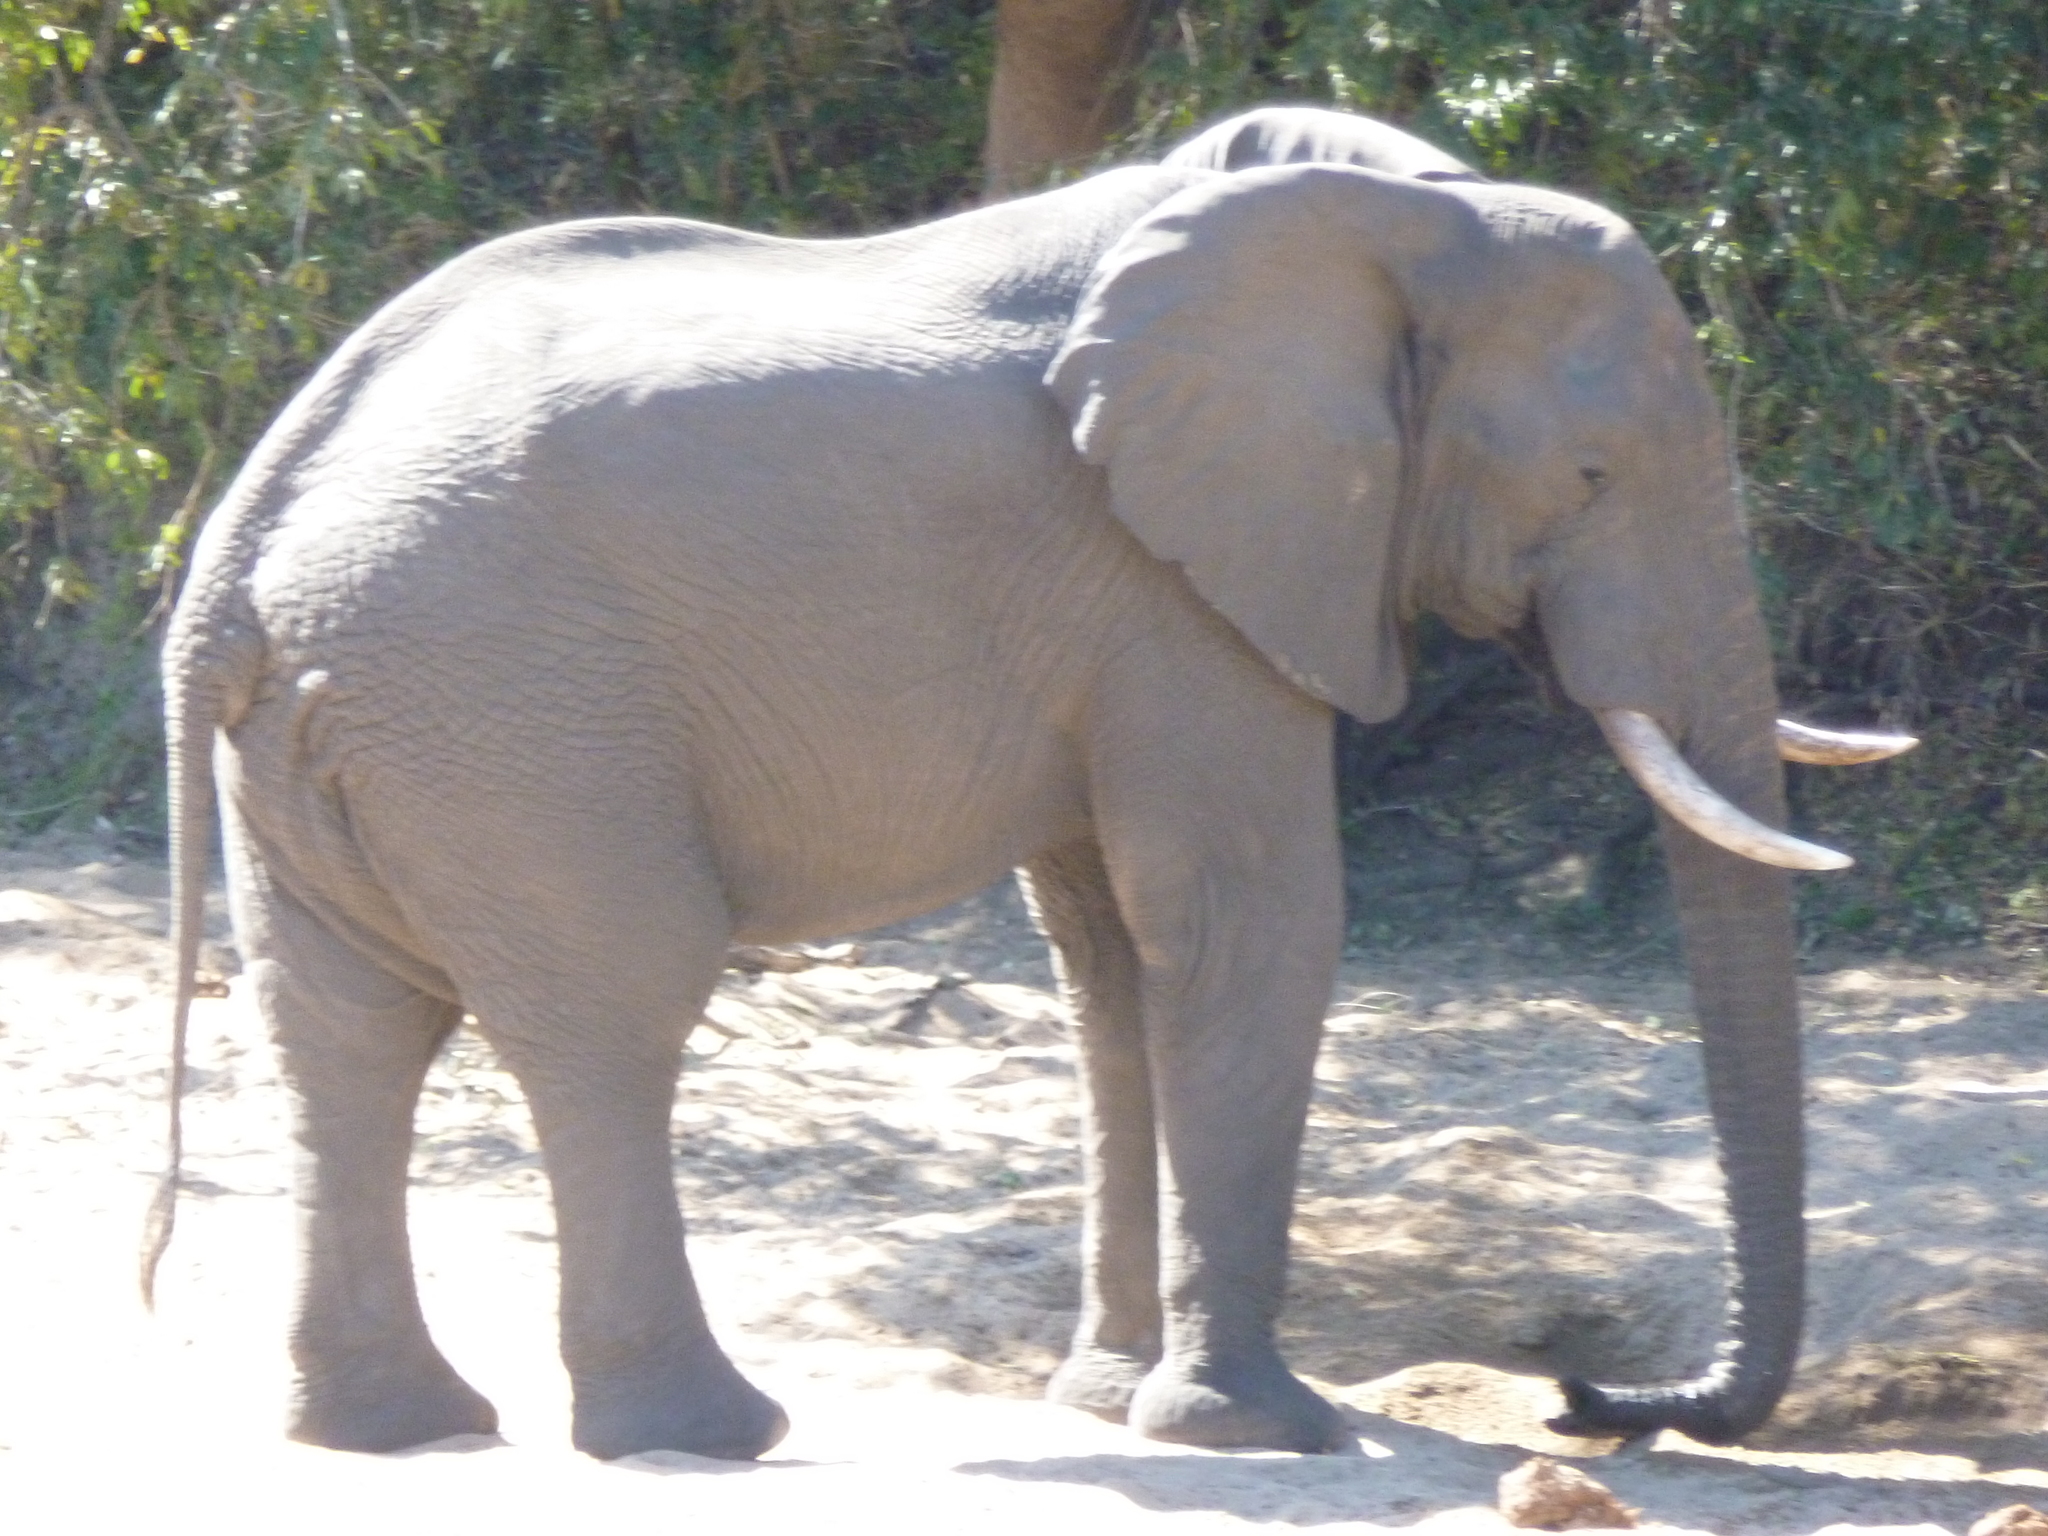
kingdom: Animalia
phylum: Chordata
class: Mammalia
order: Proboscidea
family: Elephantidae
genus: Loxodonta
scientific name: Loxodonta africana
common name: African elephant
